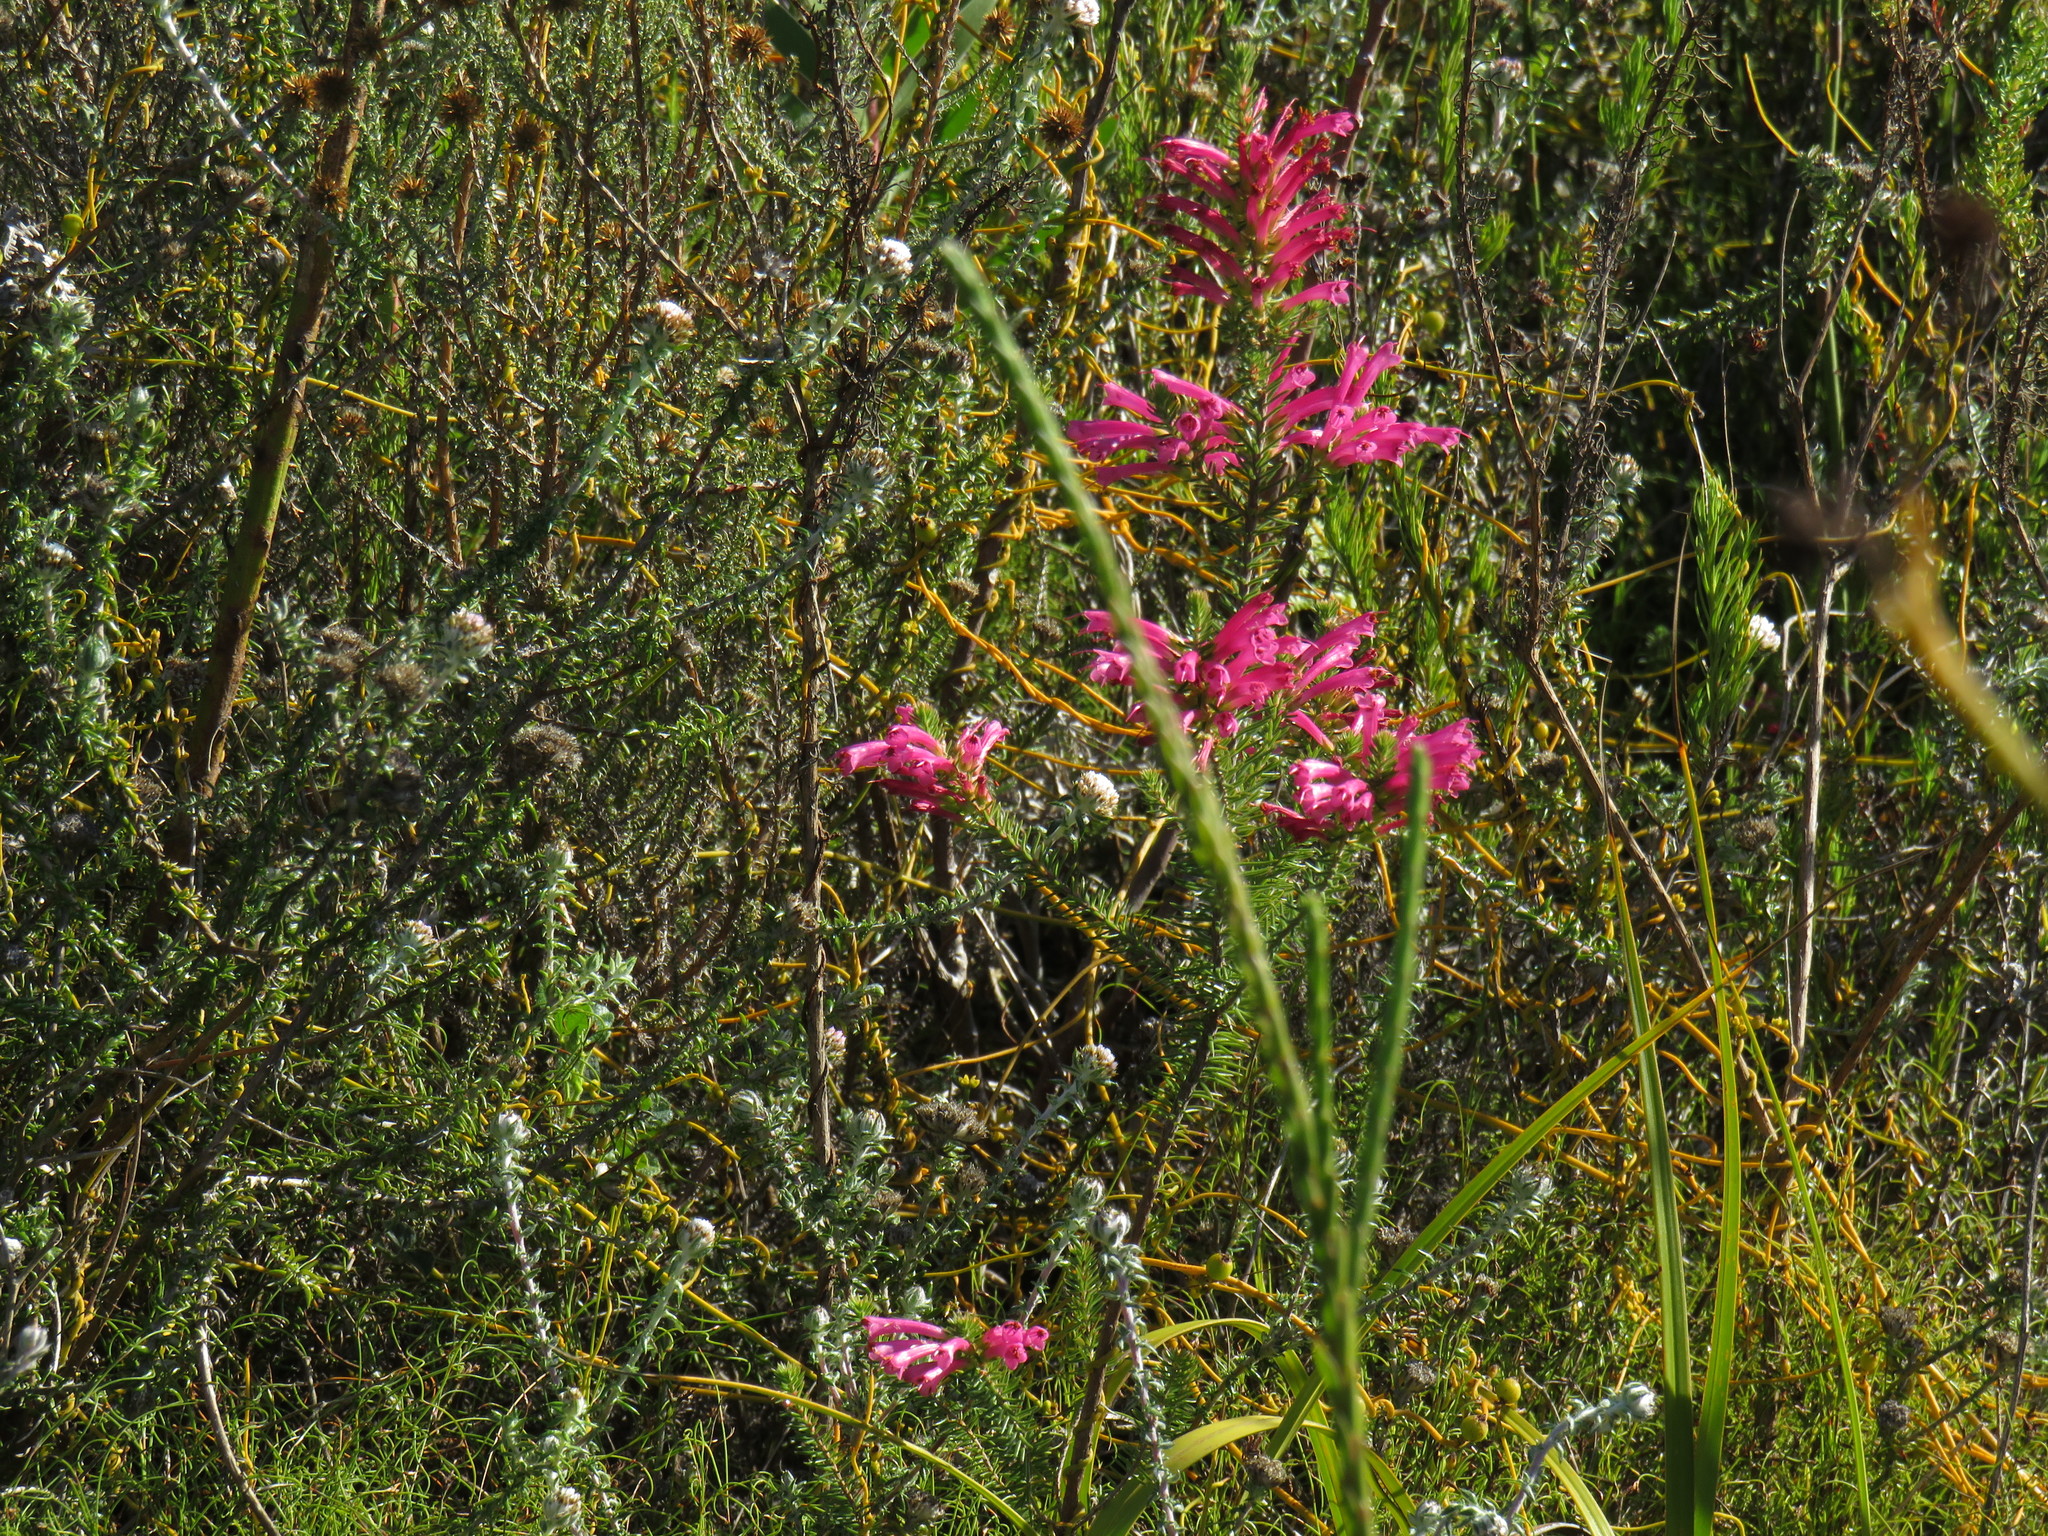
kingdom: Plantae
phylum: Tracheophyta
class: Magnoliopsida
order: Ericales
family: Ericaceae
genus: Erica
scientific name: Erica abietina
